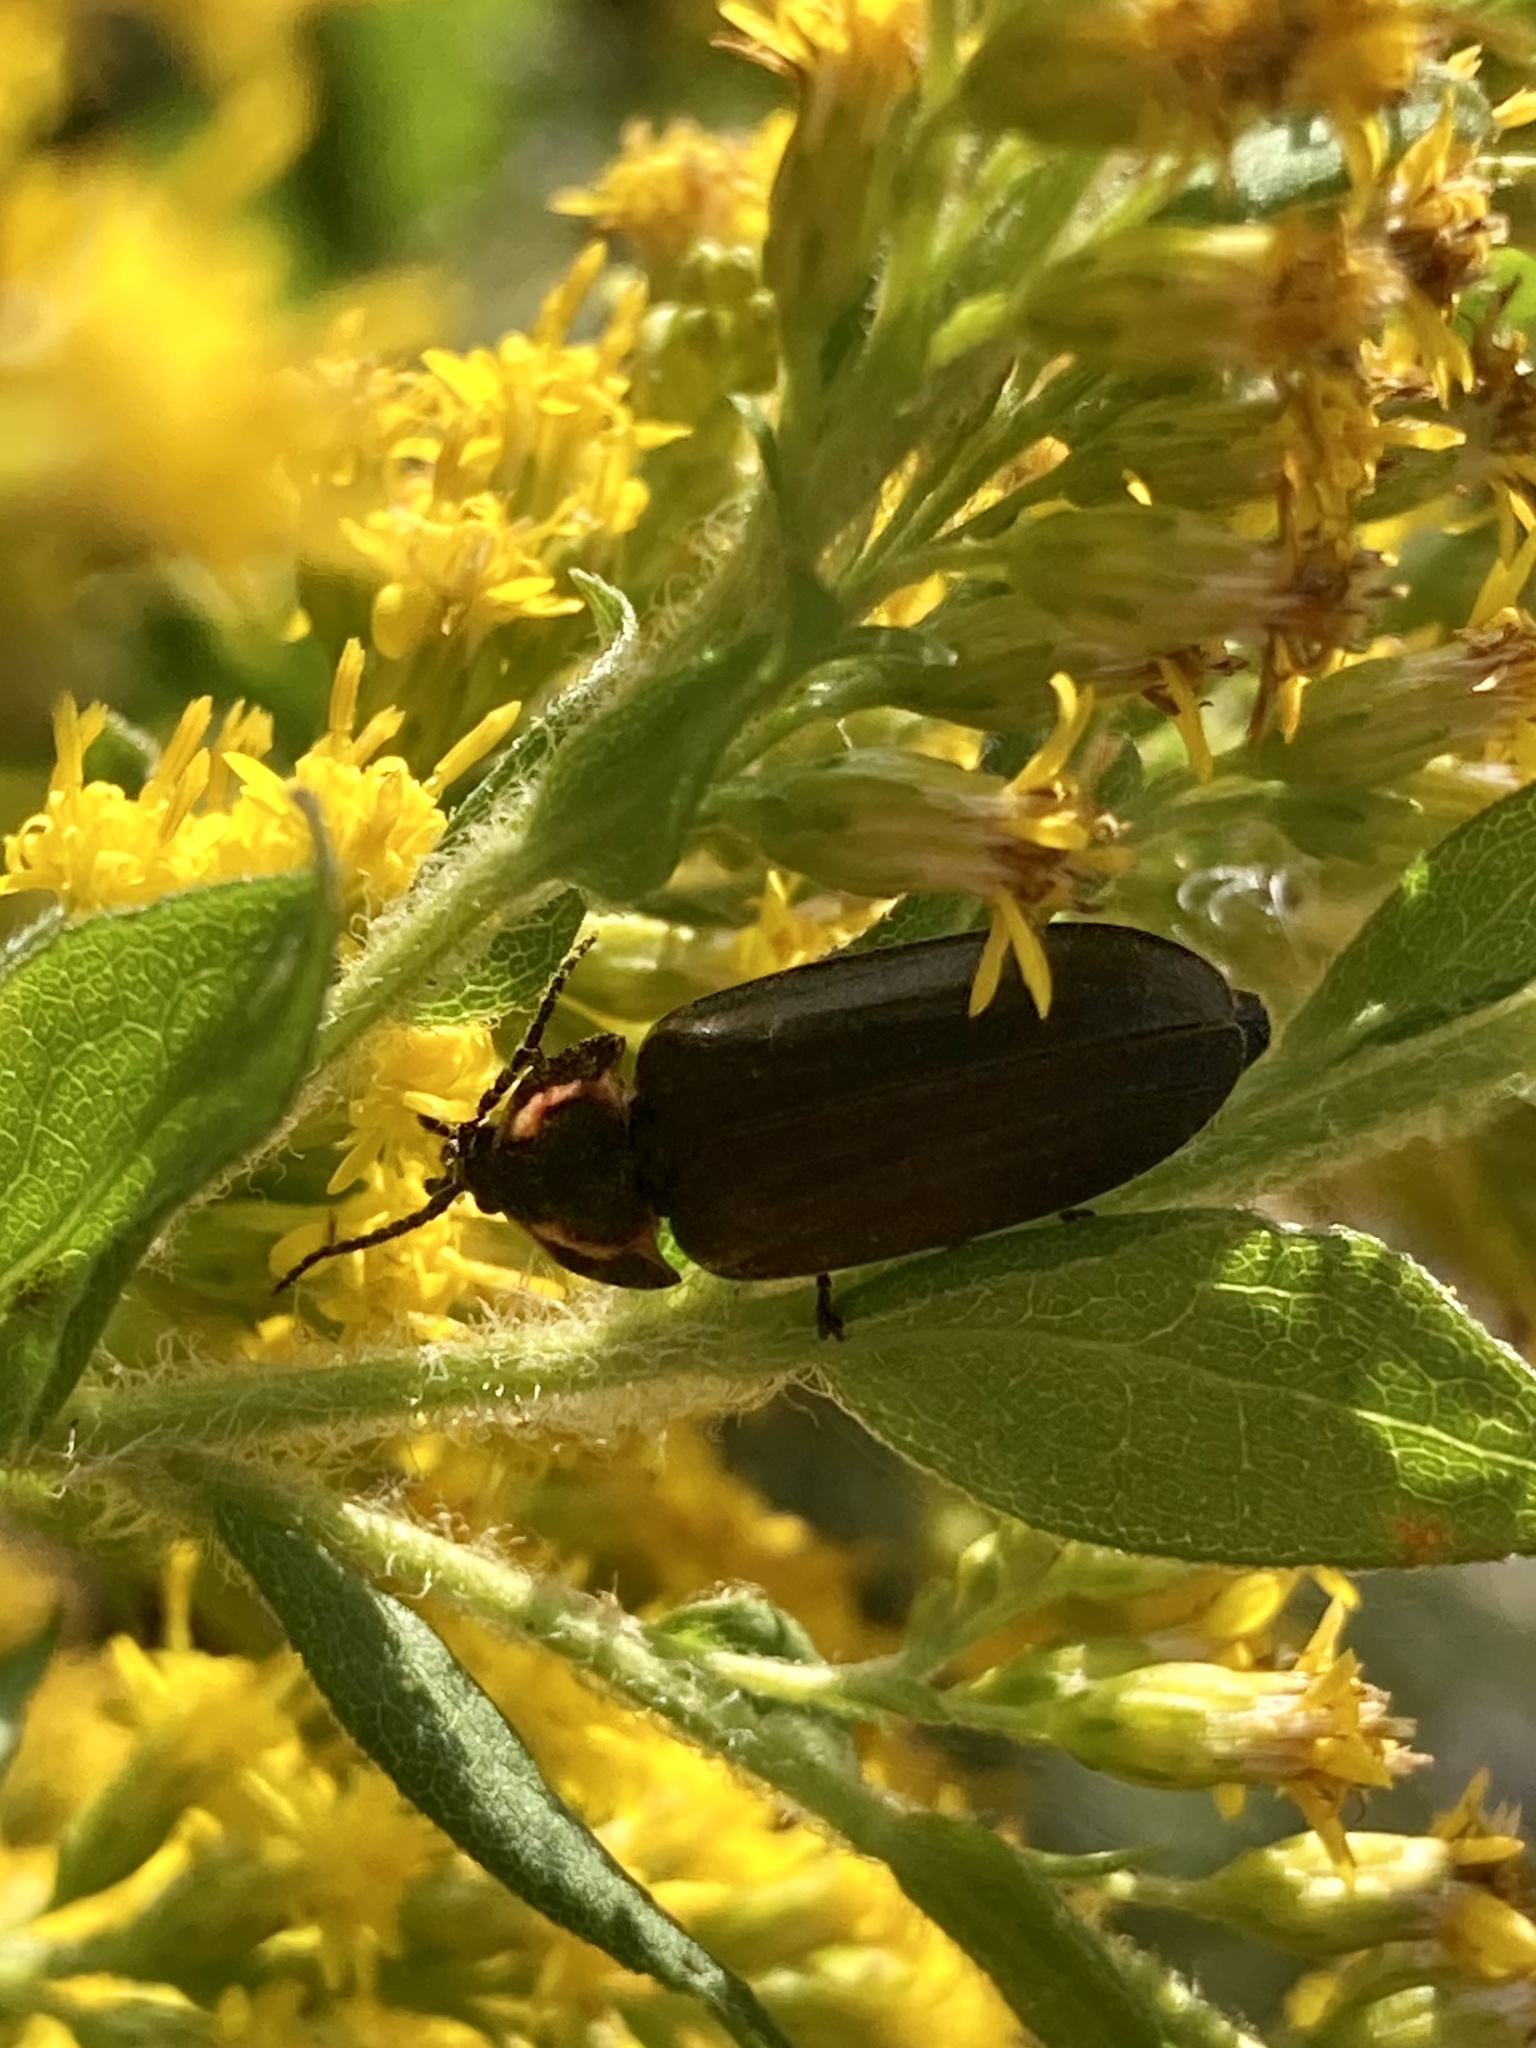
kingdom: Animalia
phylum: Arthropoda
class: Insecta
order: Coleoptera
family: Lampyridae
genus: Photinus
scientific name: Photinus corrusca
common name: Winter firefly
